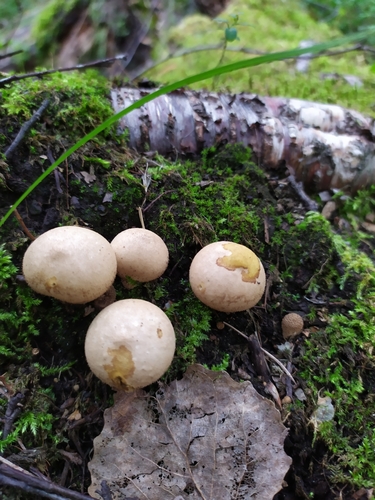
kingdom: Fungi
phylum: Basidiomycota
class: Agaricomycetes
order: Agaricales
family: Lycoperdaceae
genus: Apioperdon
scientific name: Apioperdon pyriforme
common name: Pear-shaped puffball
